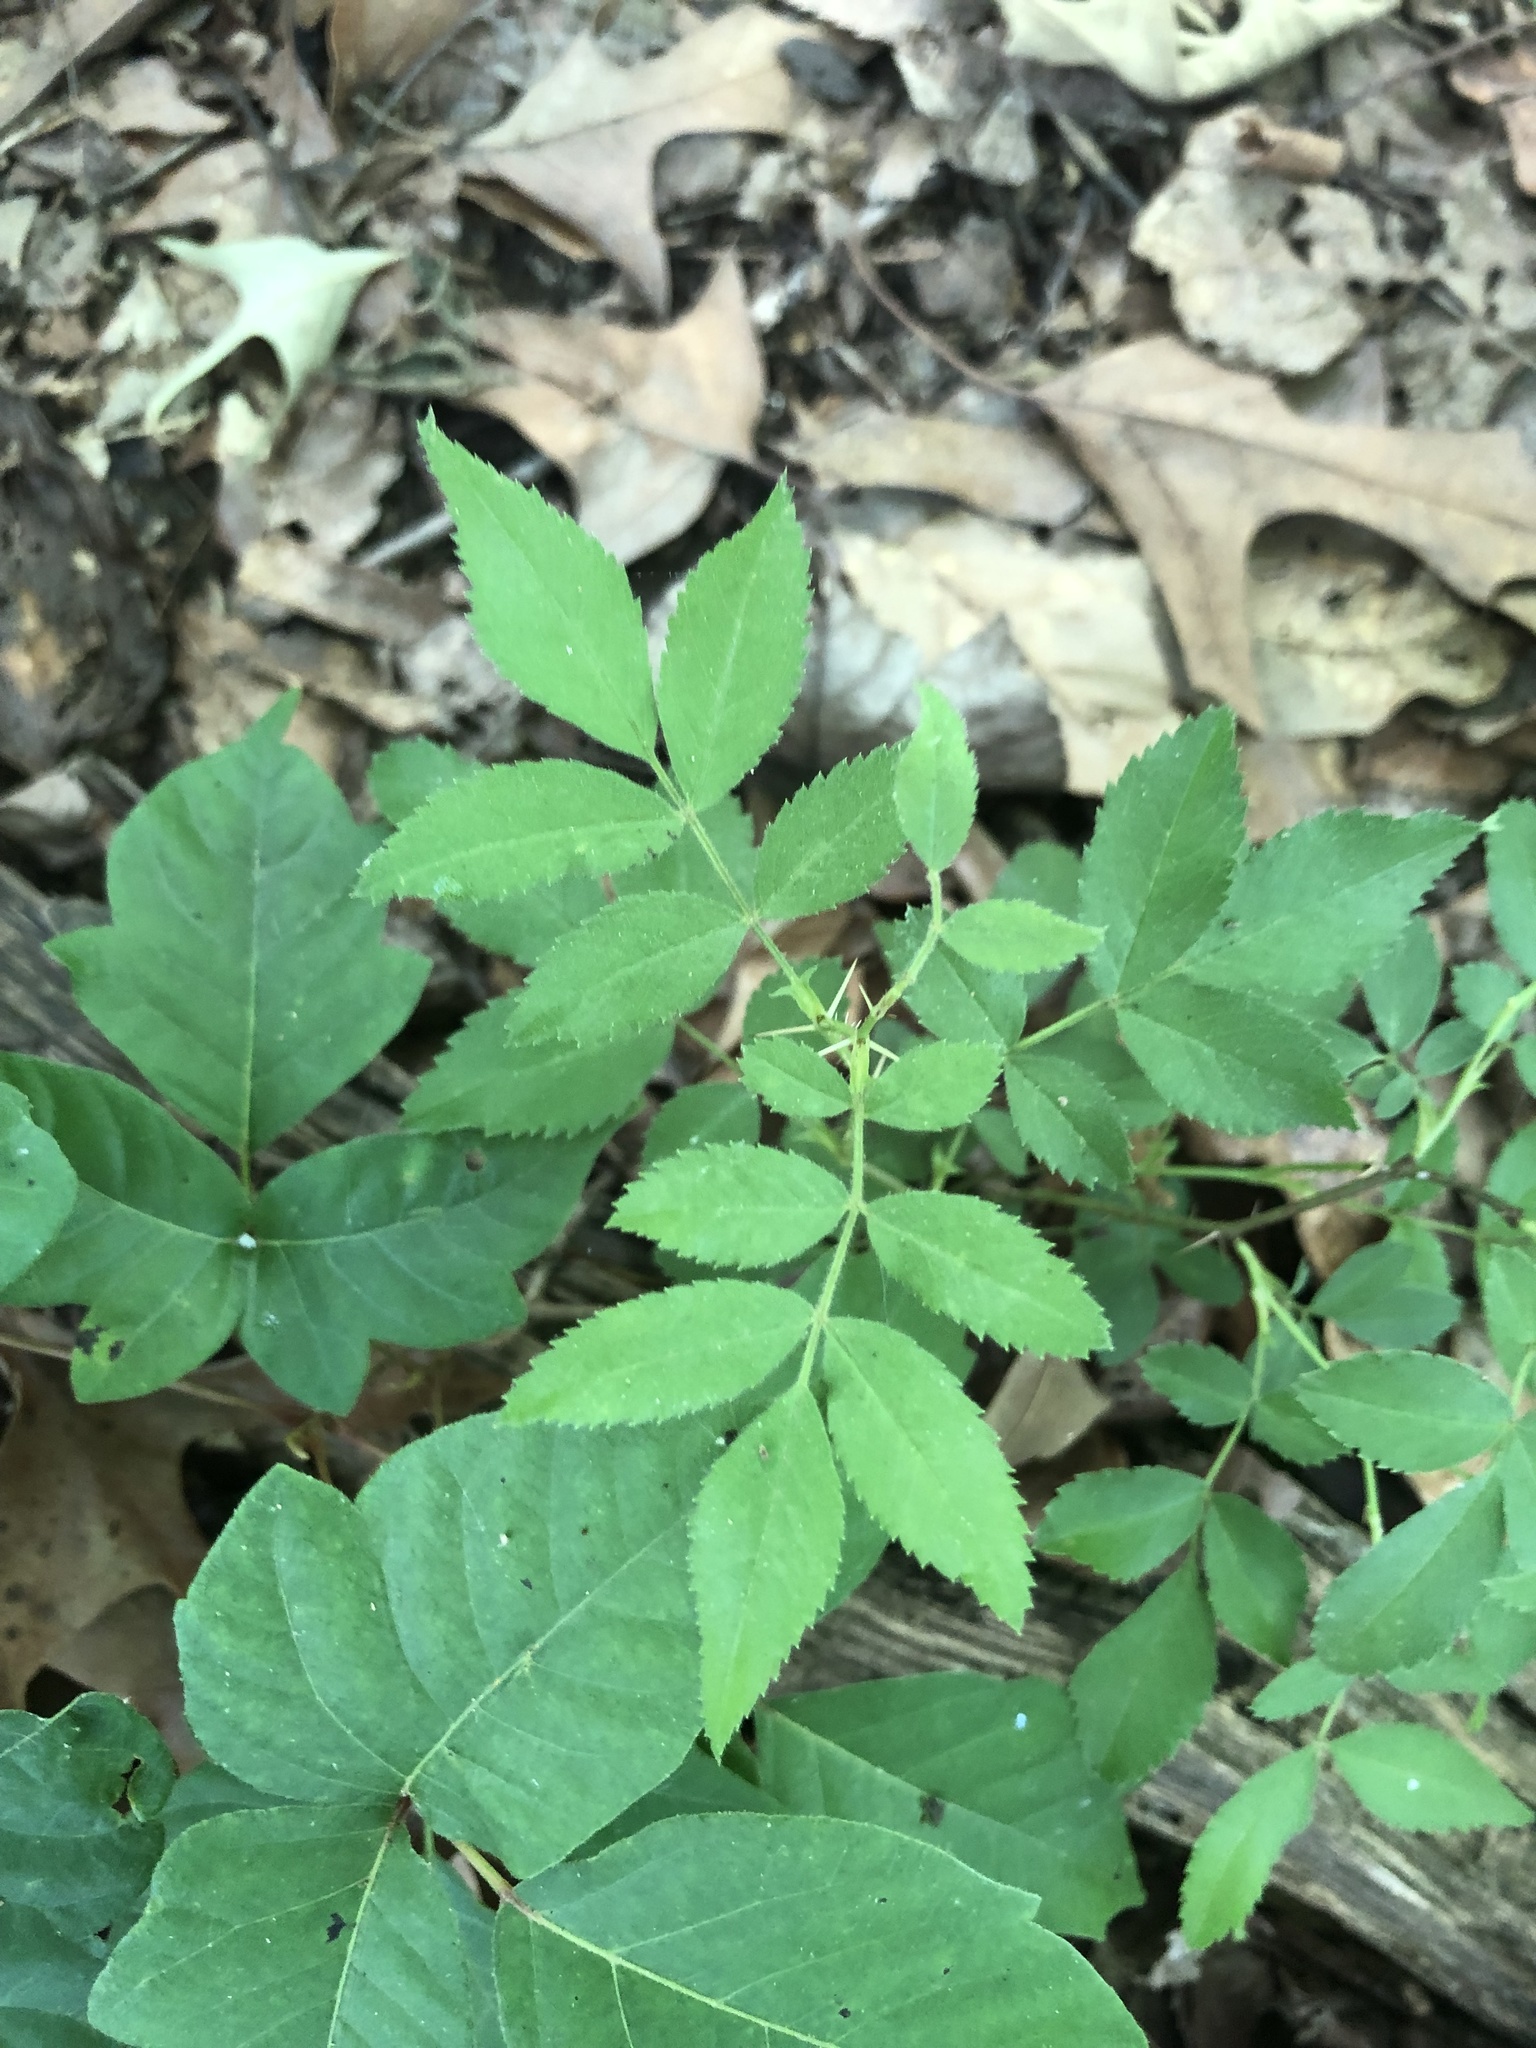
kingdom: Plantae
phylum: Tracheophyta
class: Magnoliopsida
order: Rosales
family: Rosaceae
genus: Rosa
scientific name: Rosa carolina
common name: Pasture rose
